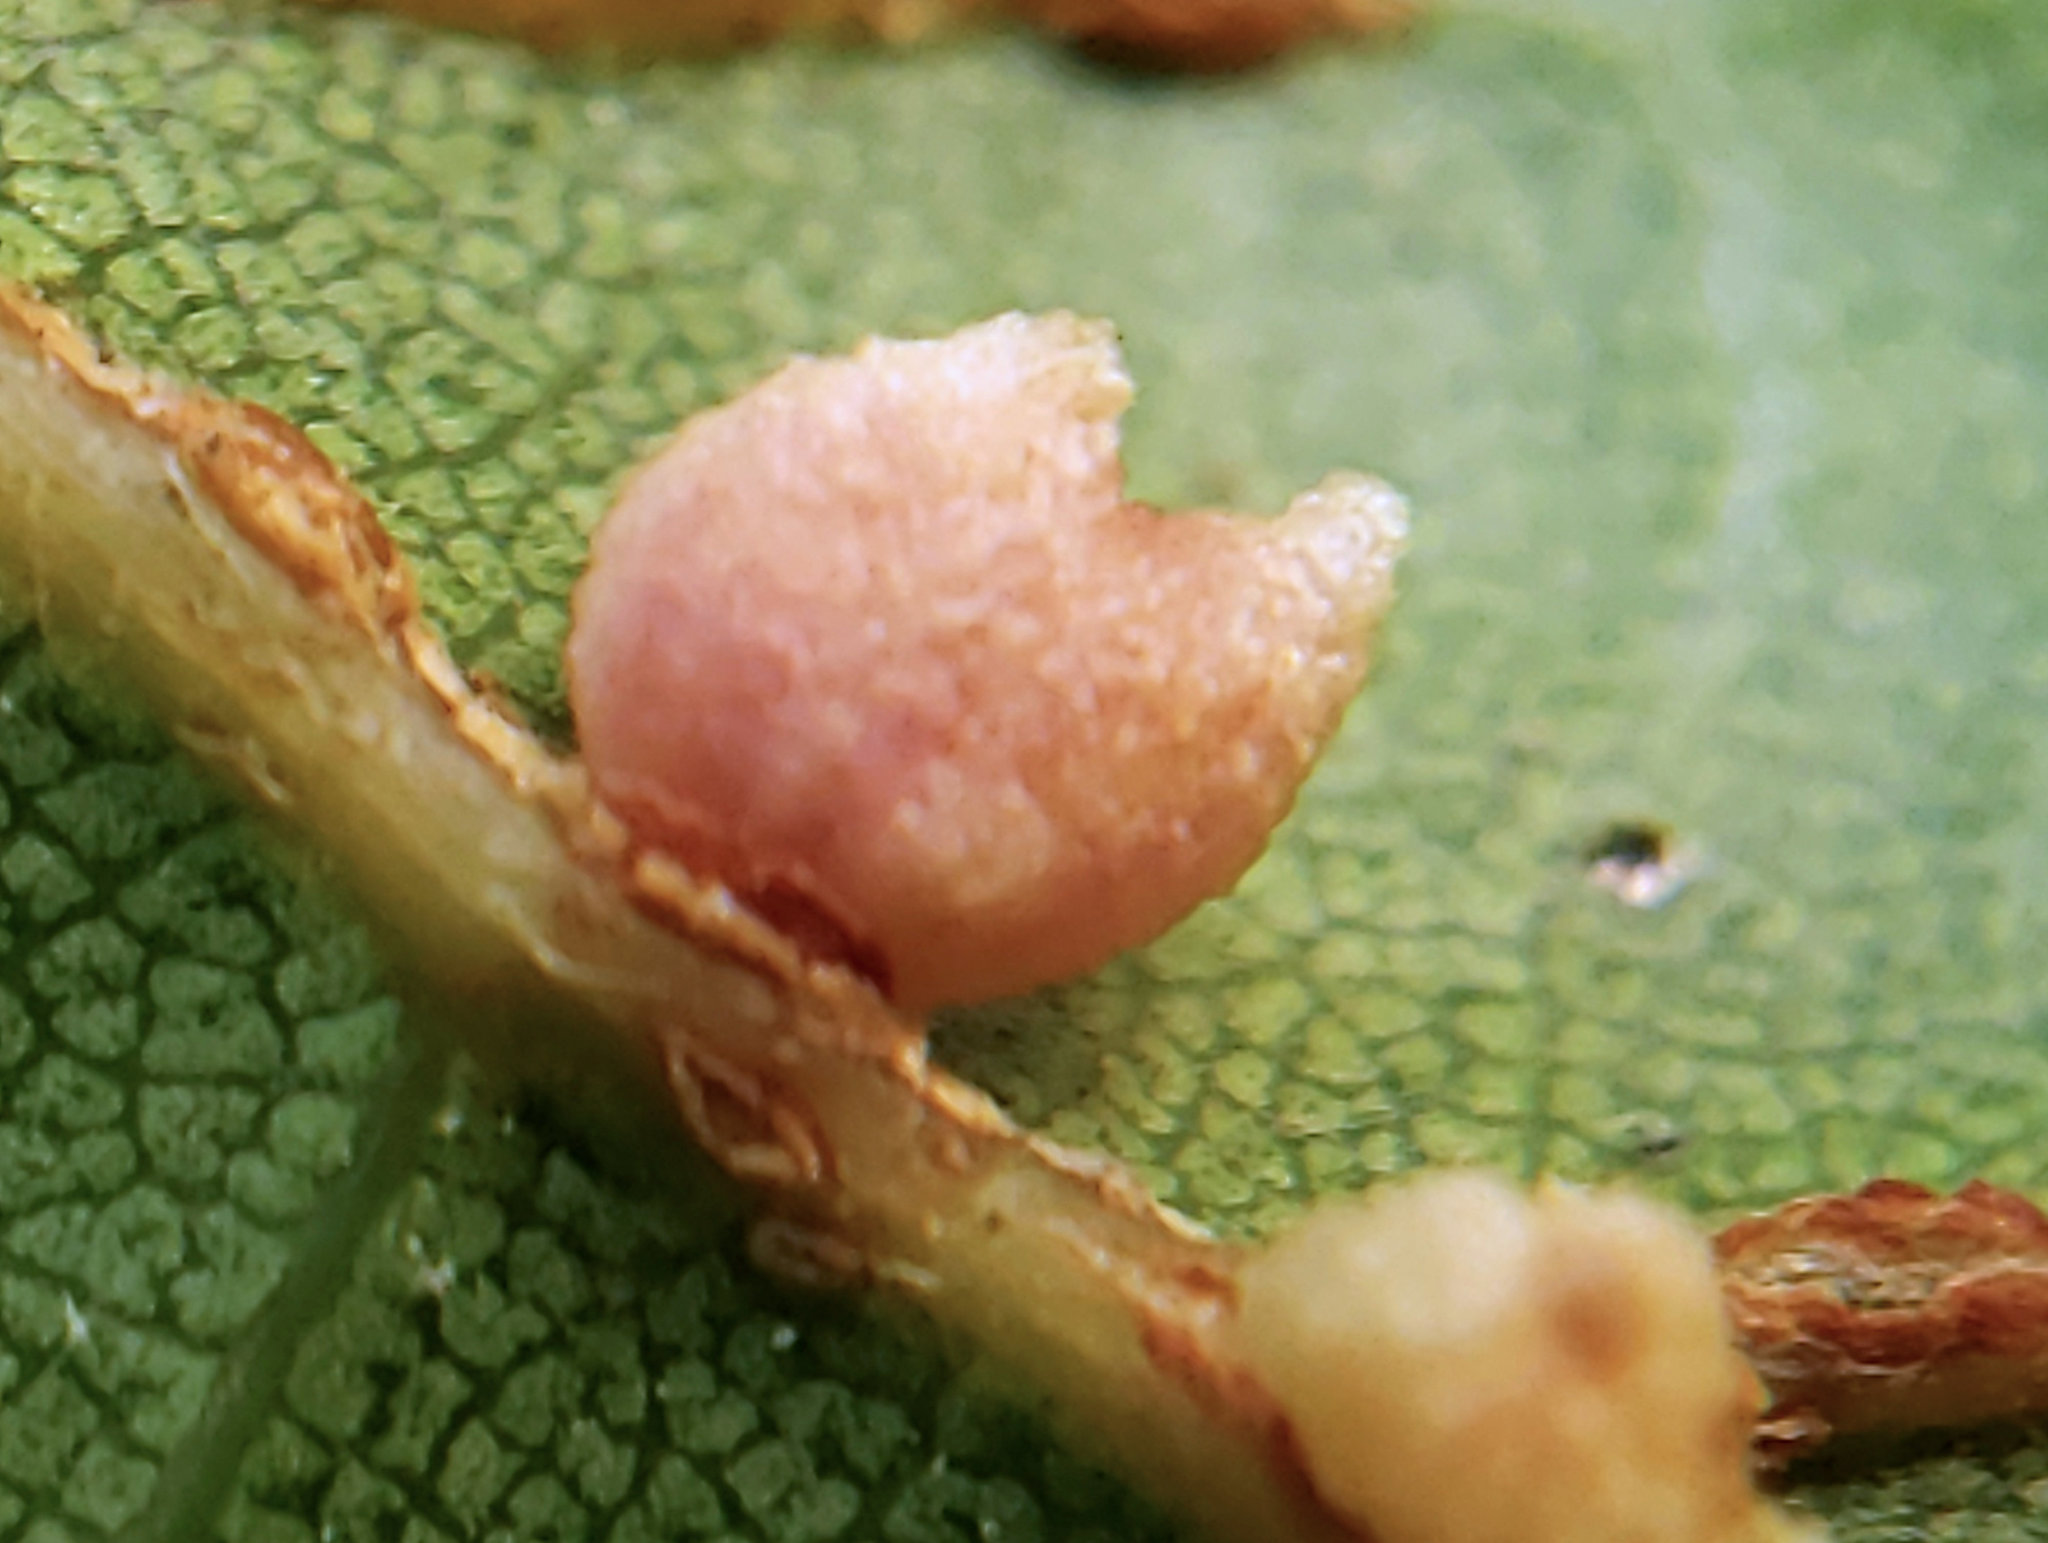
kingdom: Animalia
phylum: Arthropoda
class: Insecta
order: Hymenoptera
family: Cynipidae
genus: Dryocosmus
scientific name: Dryocosmus
